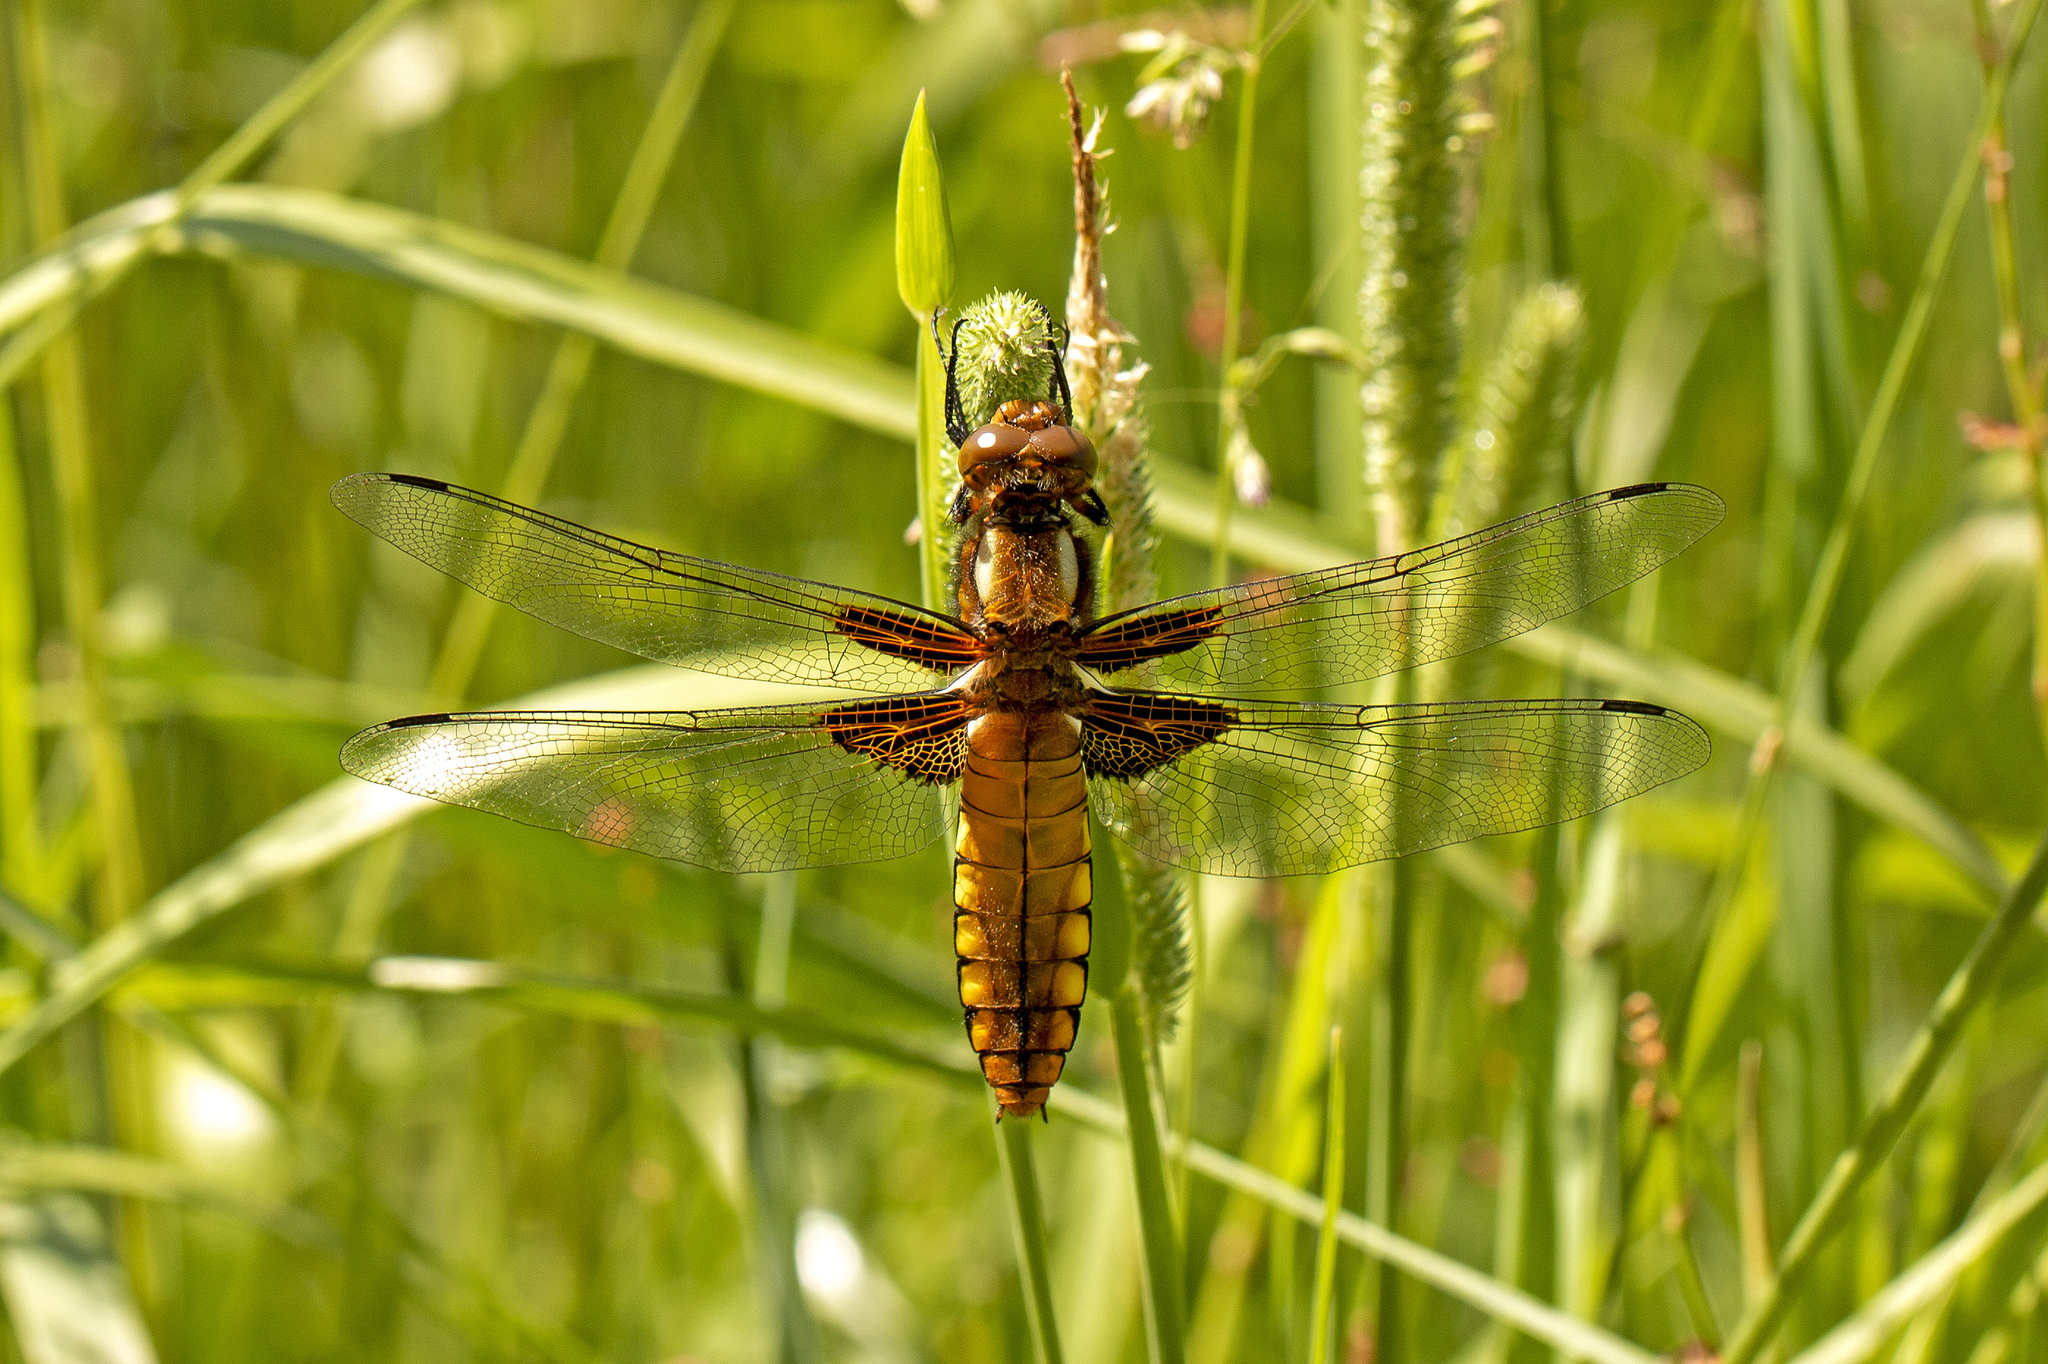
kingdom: Animalia
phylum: Arthropoda
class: Insecta
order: Odonata
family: Libellulidae
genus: Libellula
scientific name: Libellula depressa
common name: Broad-bodied chaser
